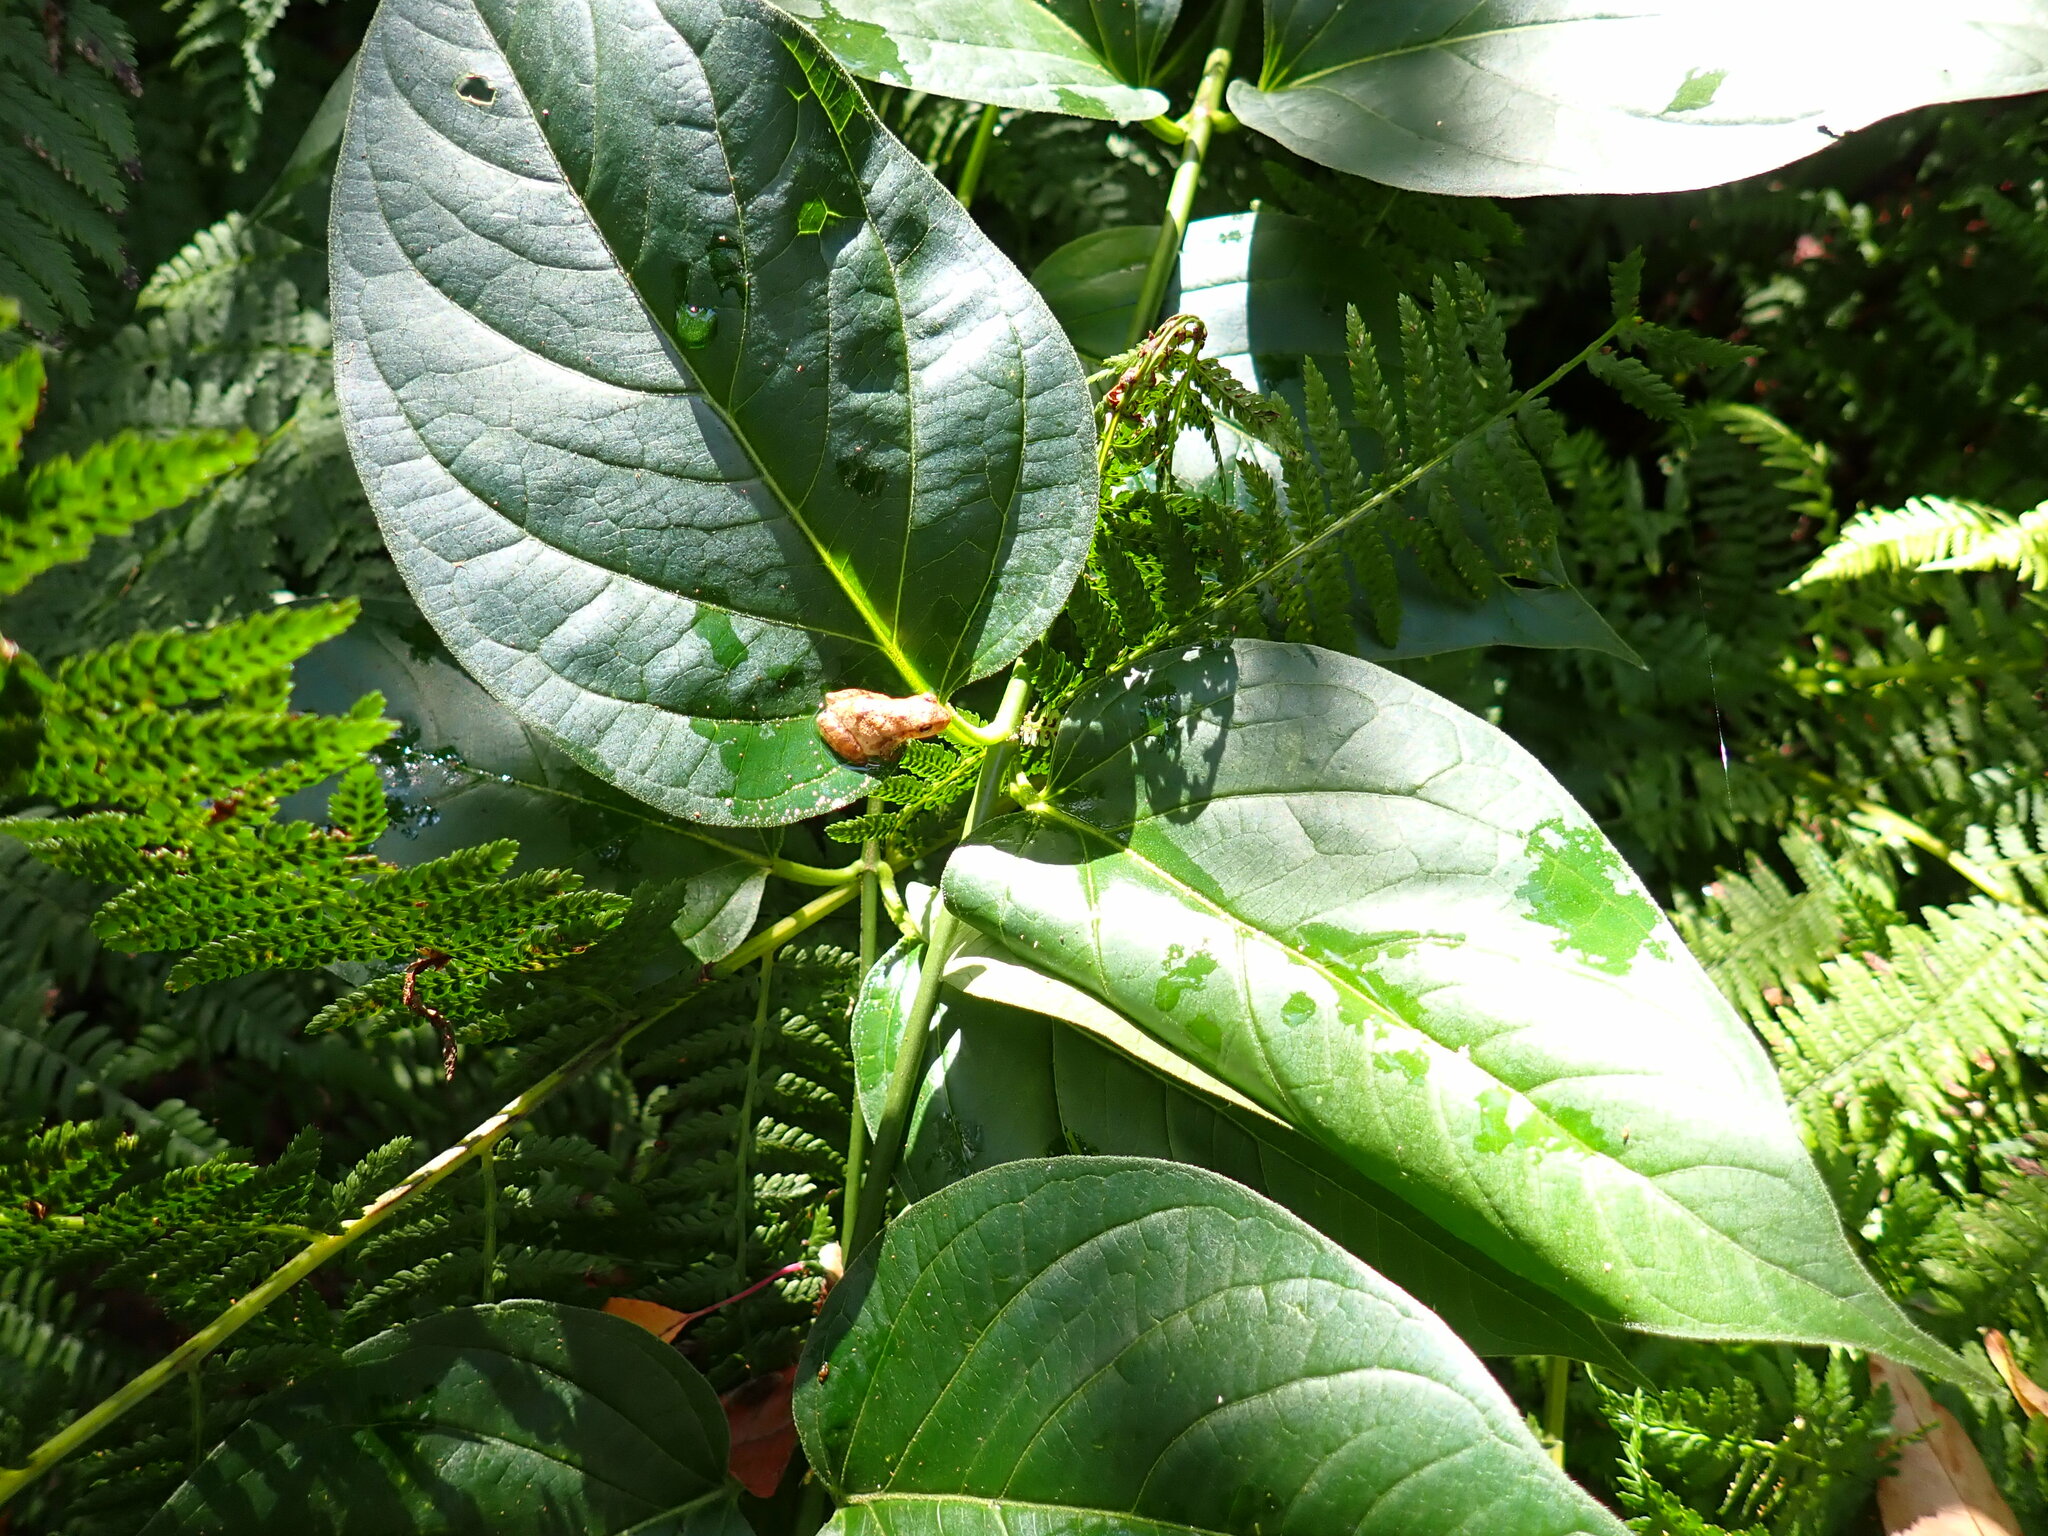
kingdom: Animalia
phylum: Chordata
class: Amphibia
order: Anura
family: Hylidae
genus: Pseudacris
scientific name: Pseudacris crucifer
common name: Spring peeper
